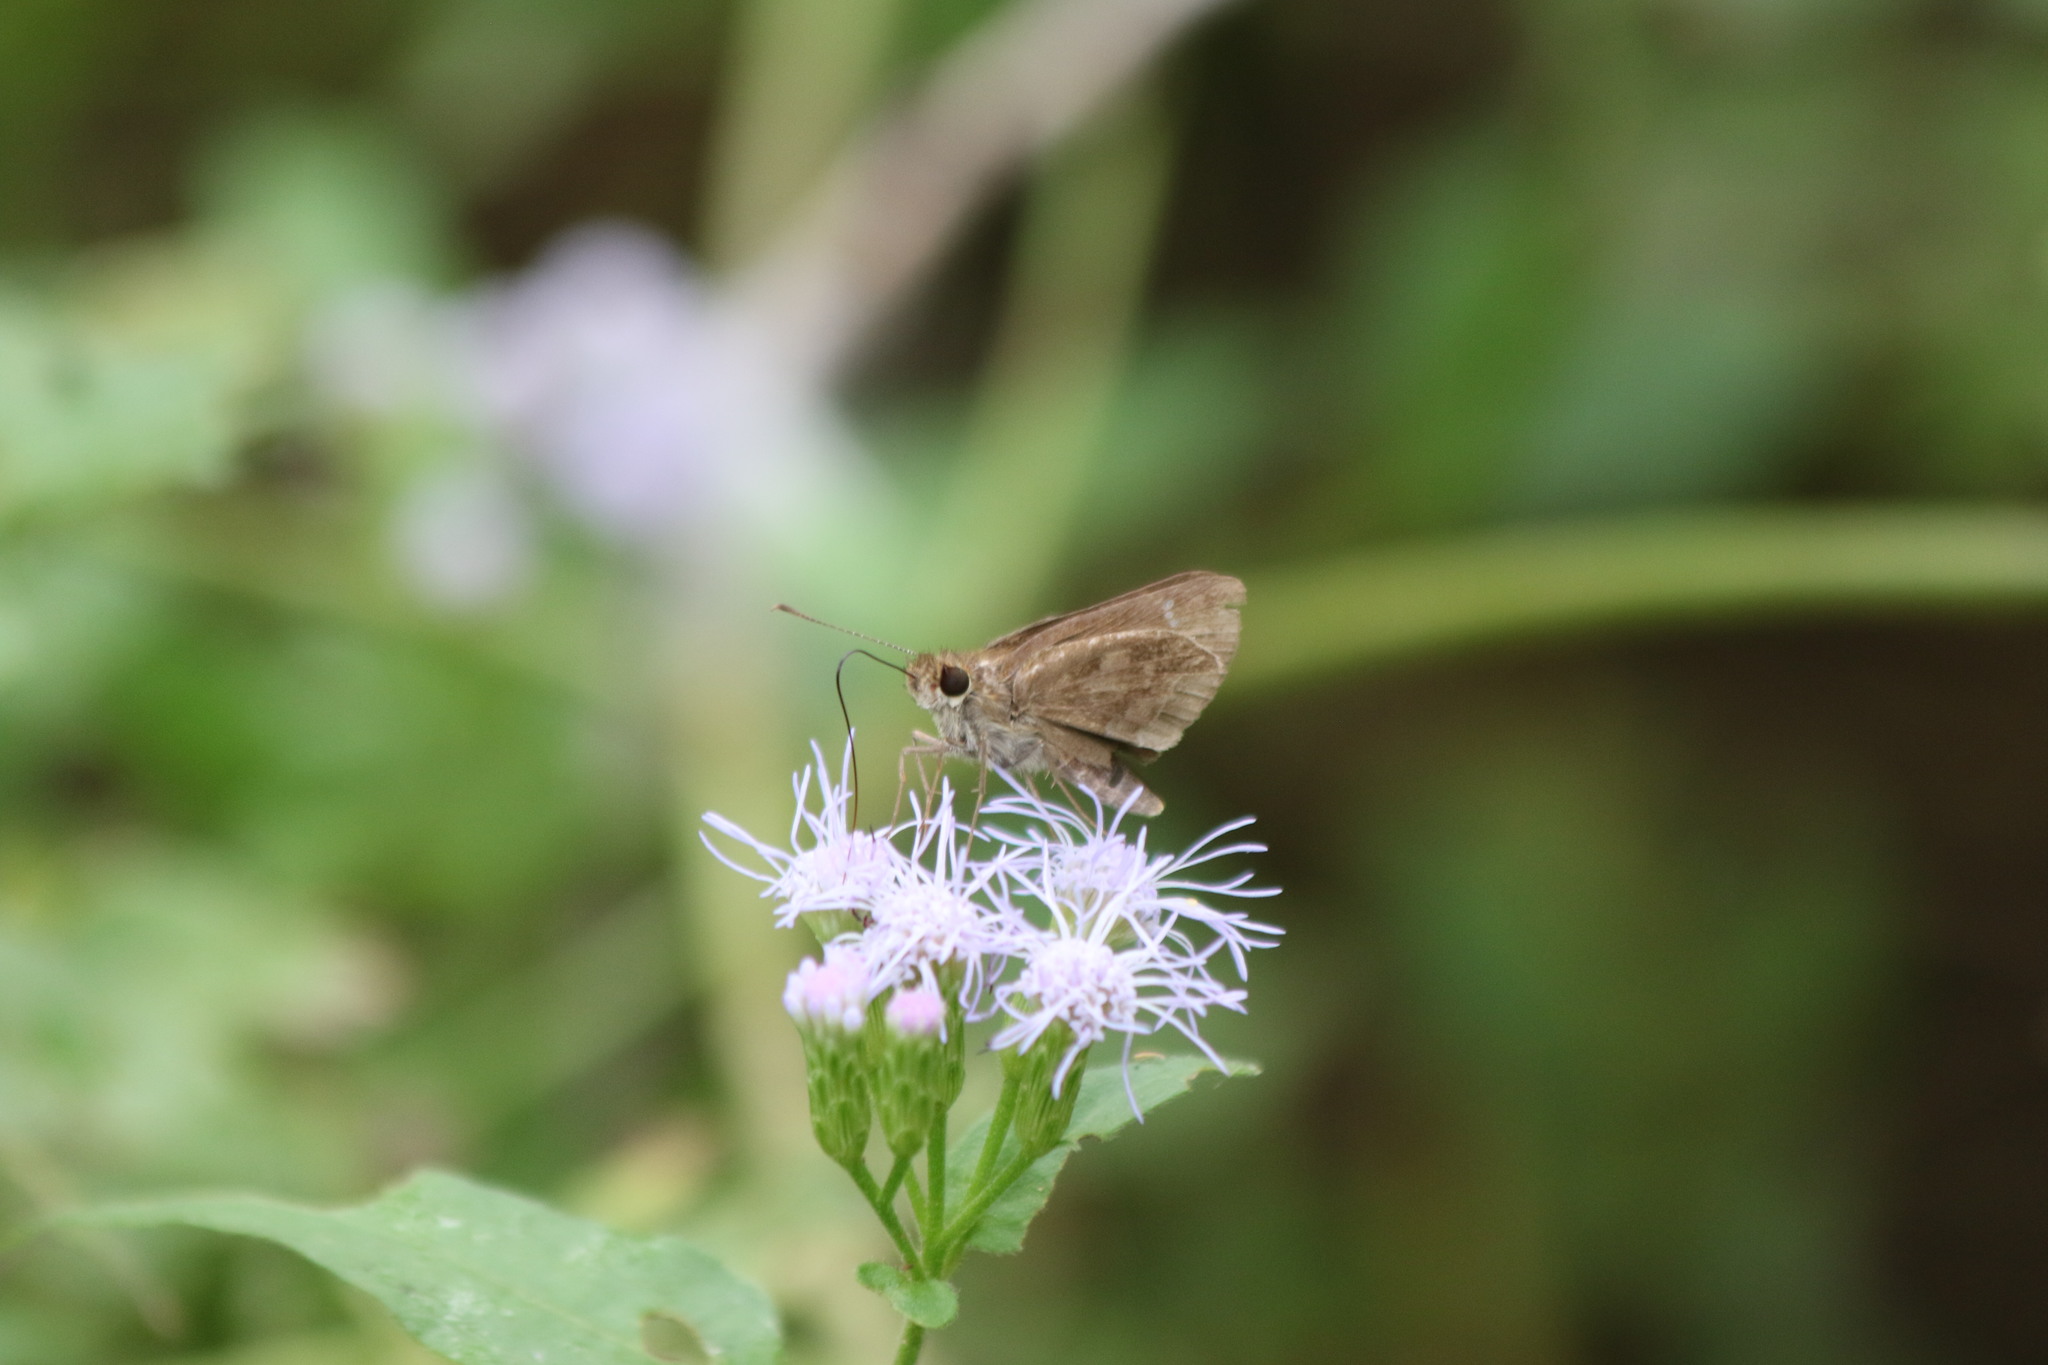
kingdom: Animalia
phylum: Arthropoda
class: Insecta
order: Lepidoptera
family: Hesperiidae
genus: Cymaenes
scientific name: Cymaenes
